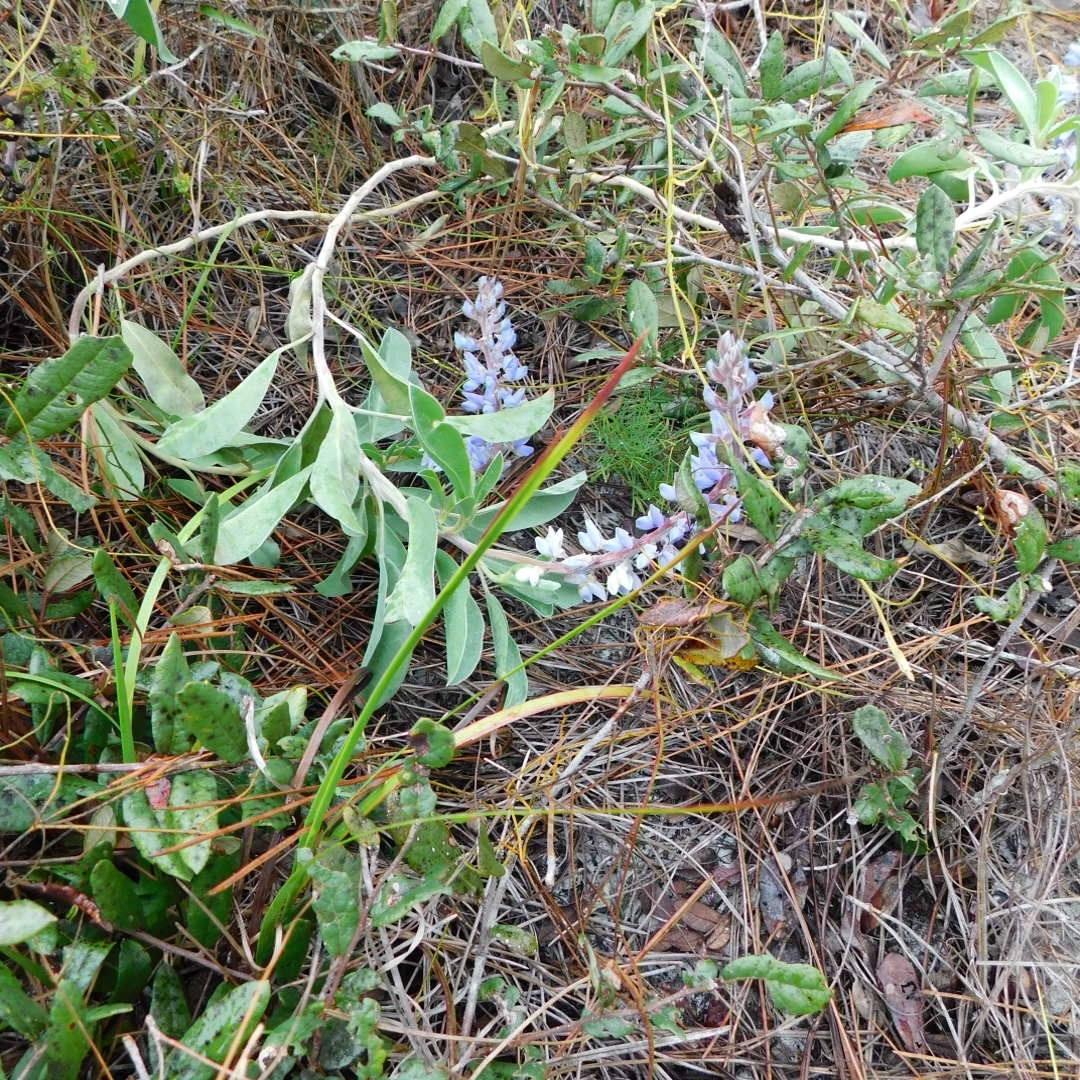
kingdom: Plantae
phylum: Tracheophyta
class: Magnoliopsida
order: Fabales
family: Fabaceae
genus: Lupinus
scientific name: Lupinus
